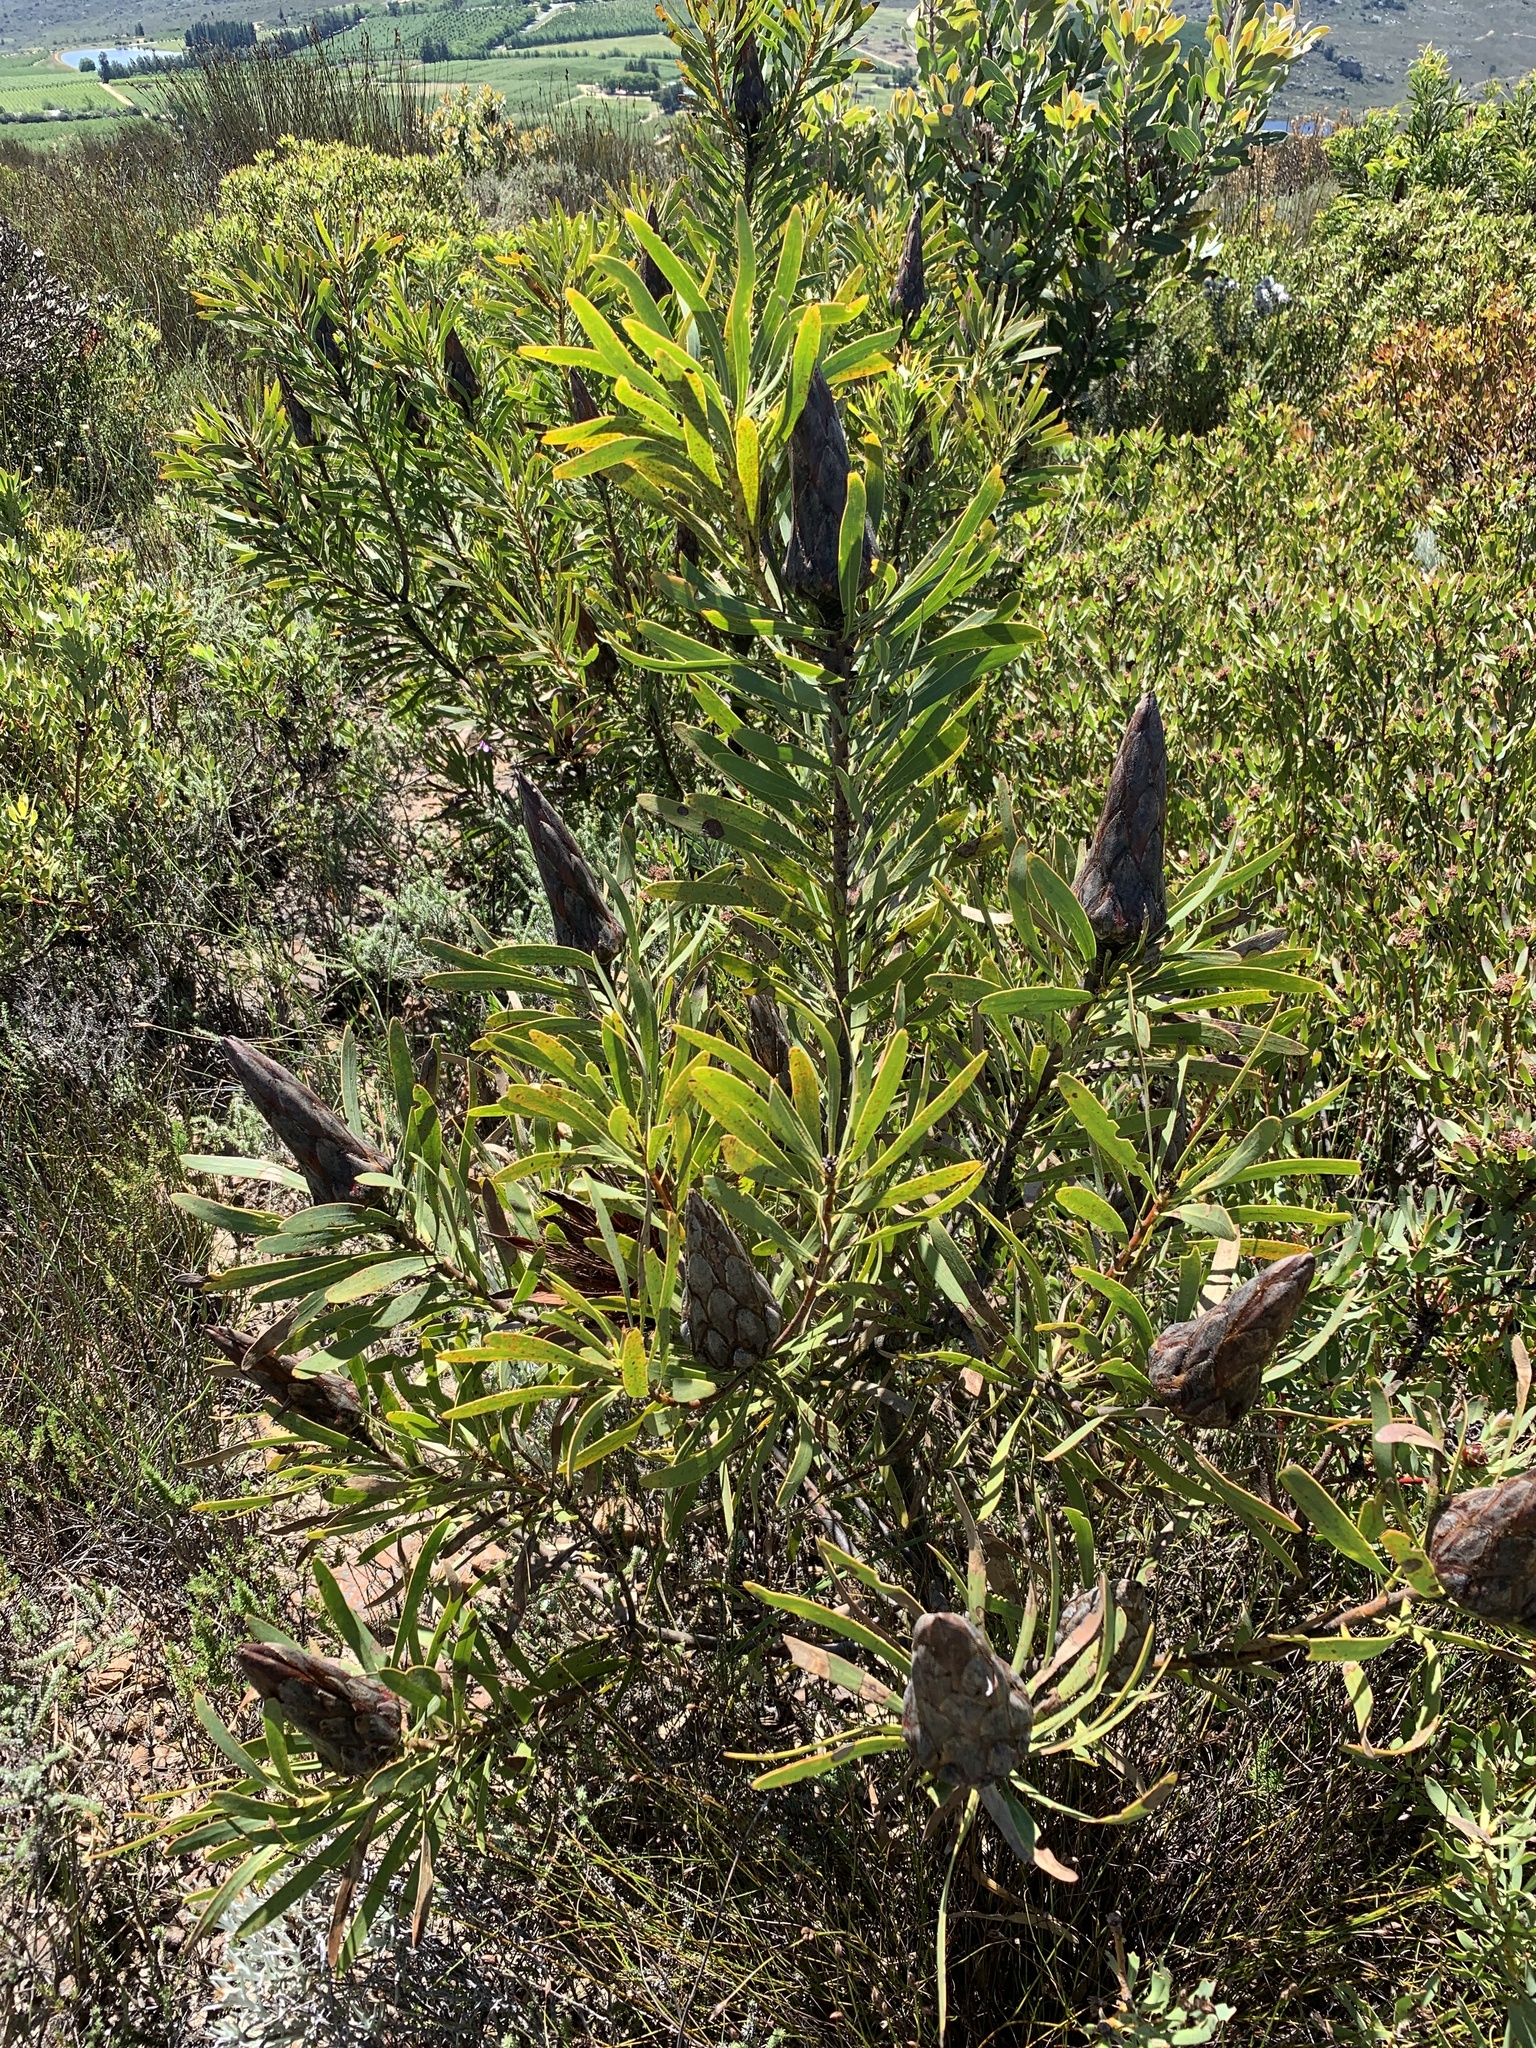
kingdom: Plantae
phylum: Tracheophyta
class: Magnoliopsida
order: Proteales
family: Proteaceae
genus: Protea
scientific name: Protea repens
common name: Sugarbush
